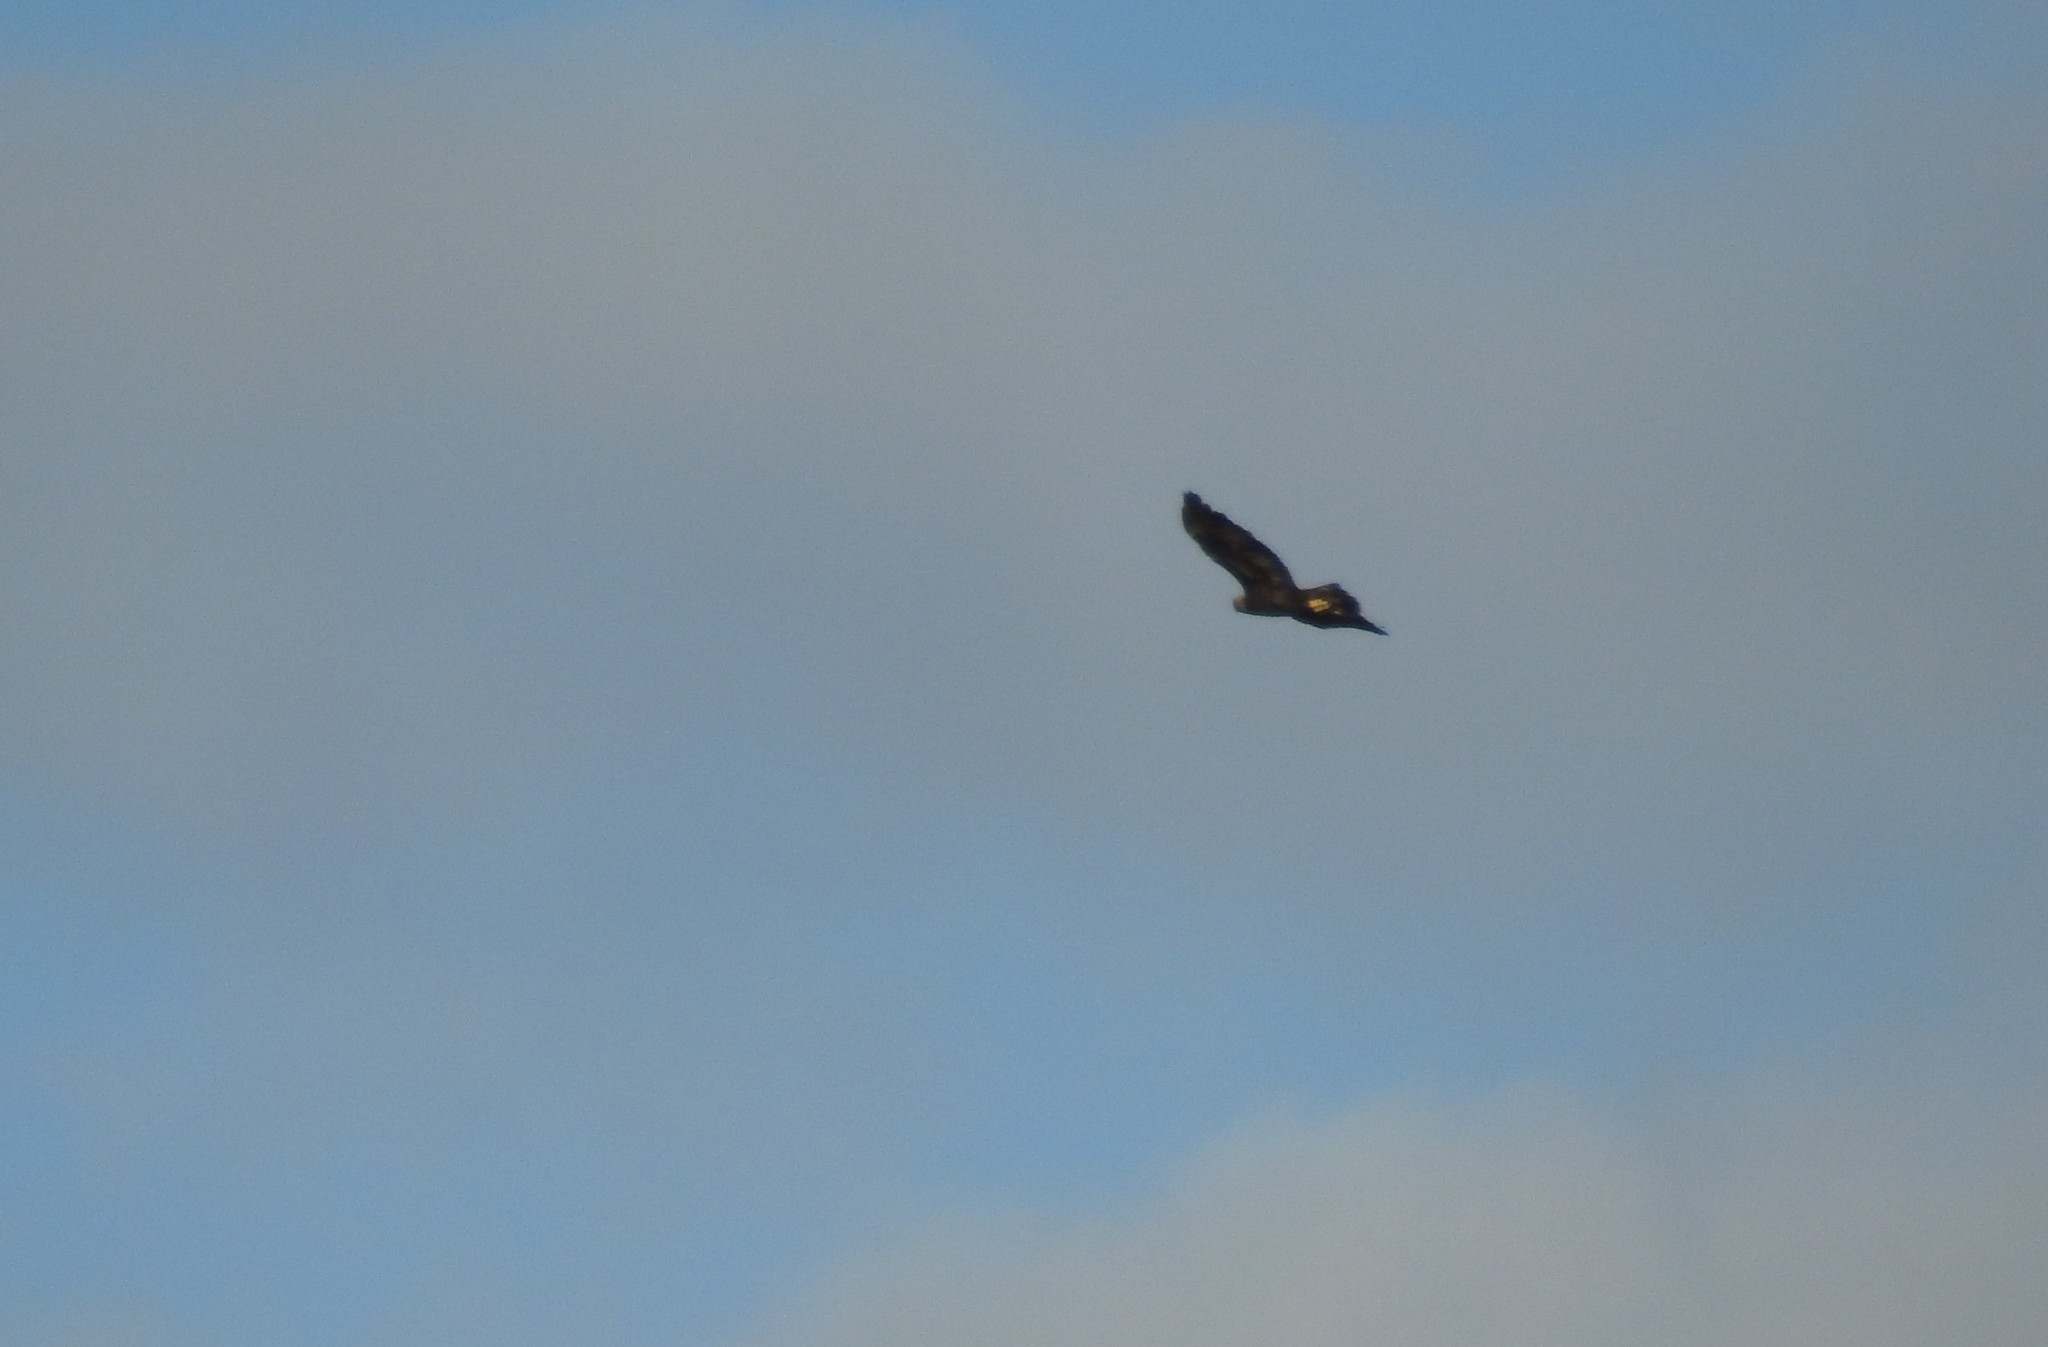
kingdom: Animalia
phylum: Chordata
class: Aves
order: Accipitriformes
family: Accipitridae
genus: Aquila
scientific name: Aquila chrysaetos
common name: Golden eagle
